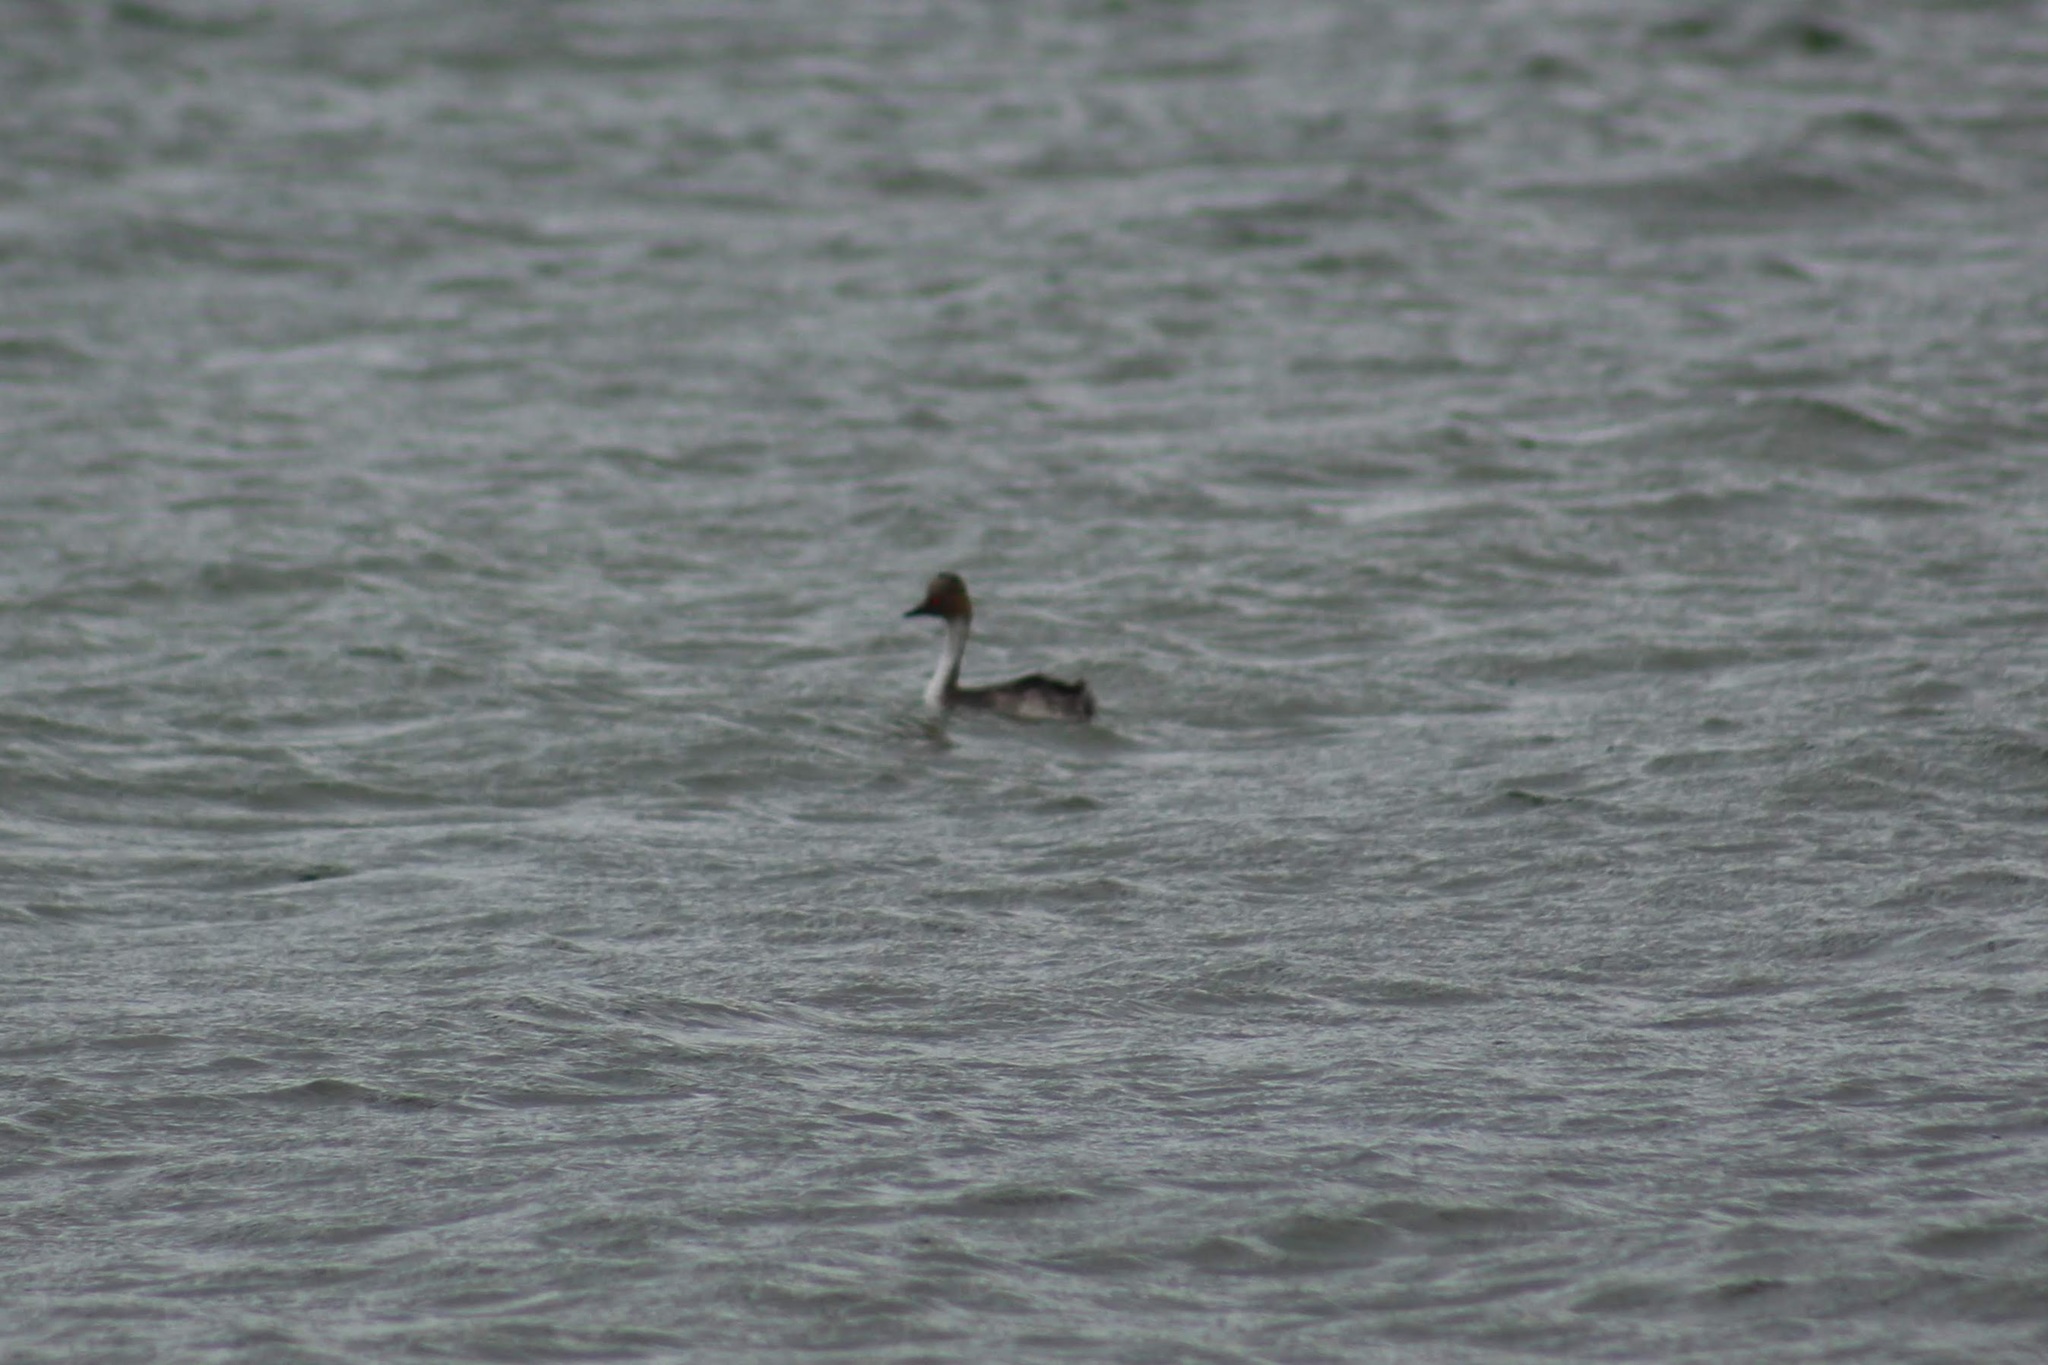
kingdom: Animalia
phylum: Chordata
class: Aves
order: Podicipediformes
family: Podicipedidae
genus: Podiceps
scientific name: Podiceps occipitalis
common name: Silvery grebe
